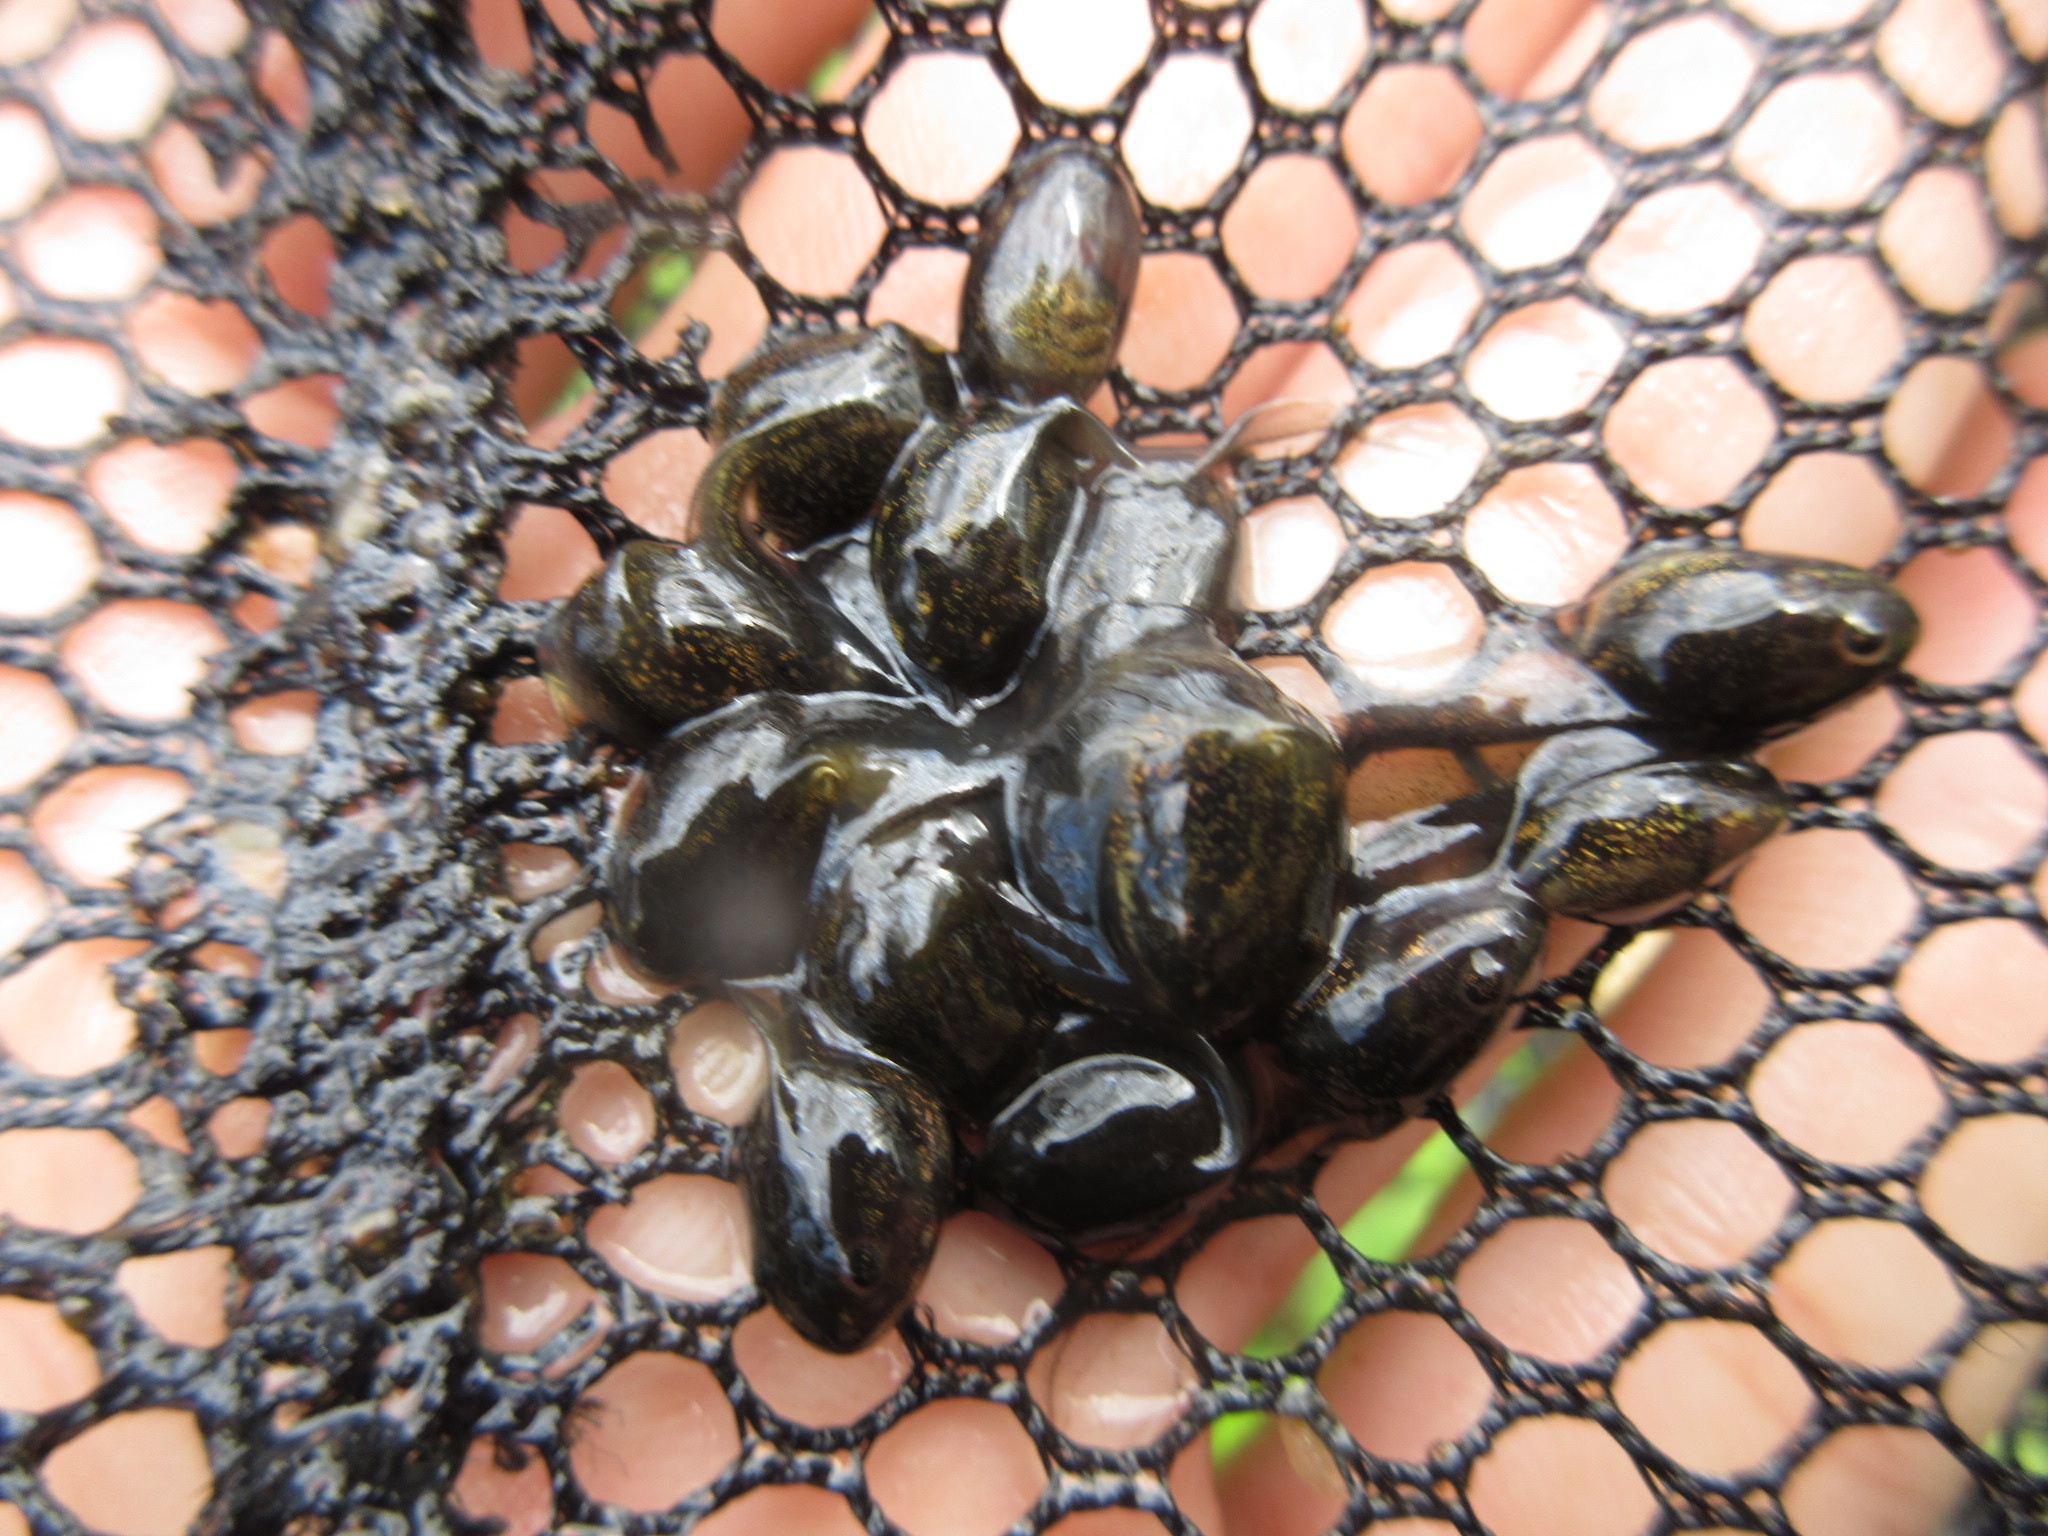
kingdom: Animalia
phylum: Chordata
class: Amphibia
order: Anura
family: Ranidae
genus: Lithobates
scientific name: Lithobates sylvaticus
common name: Wood frog
